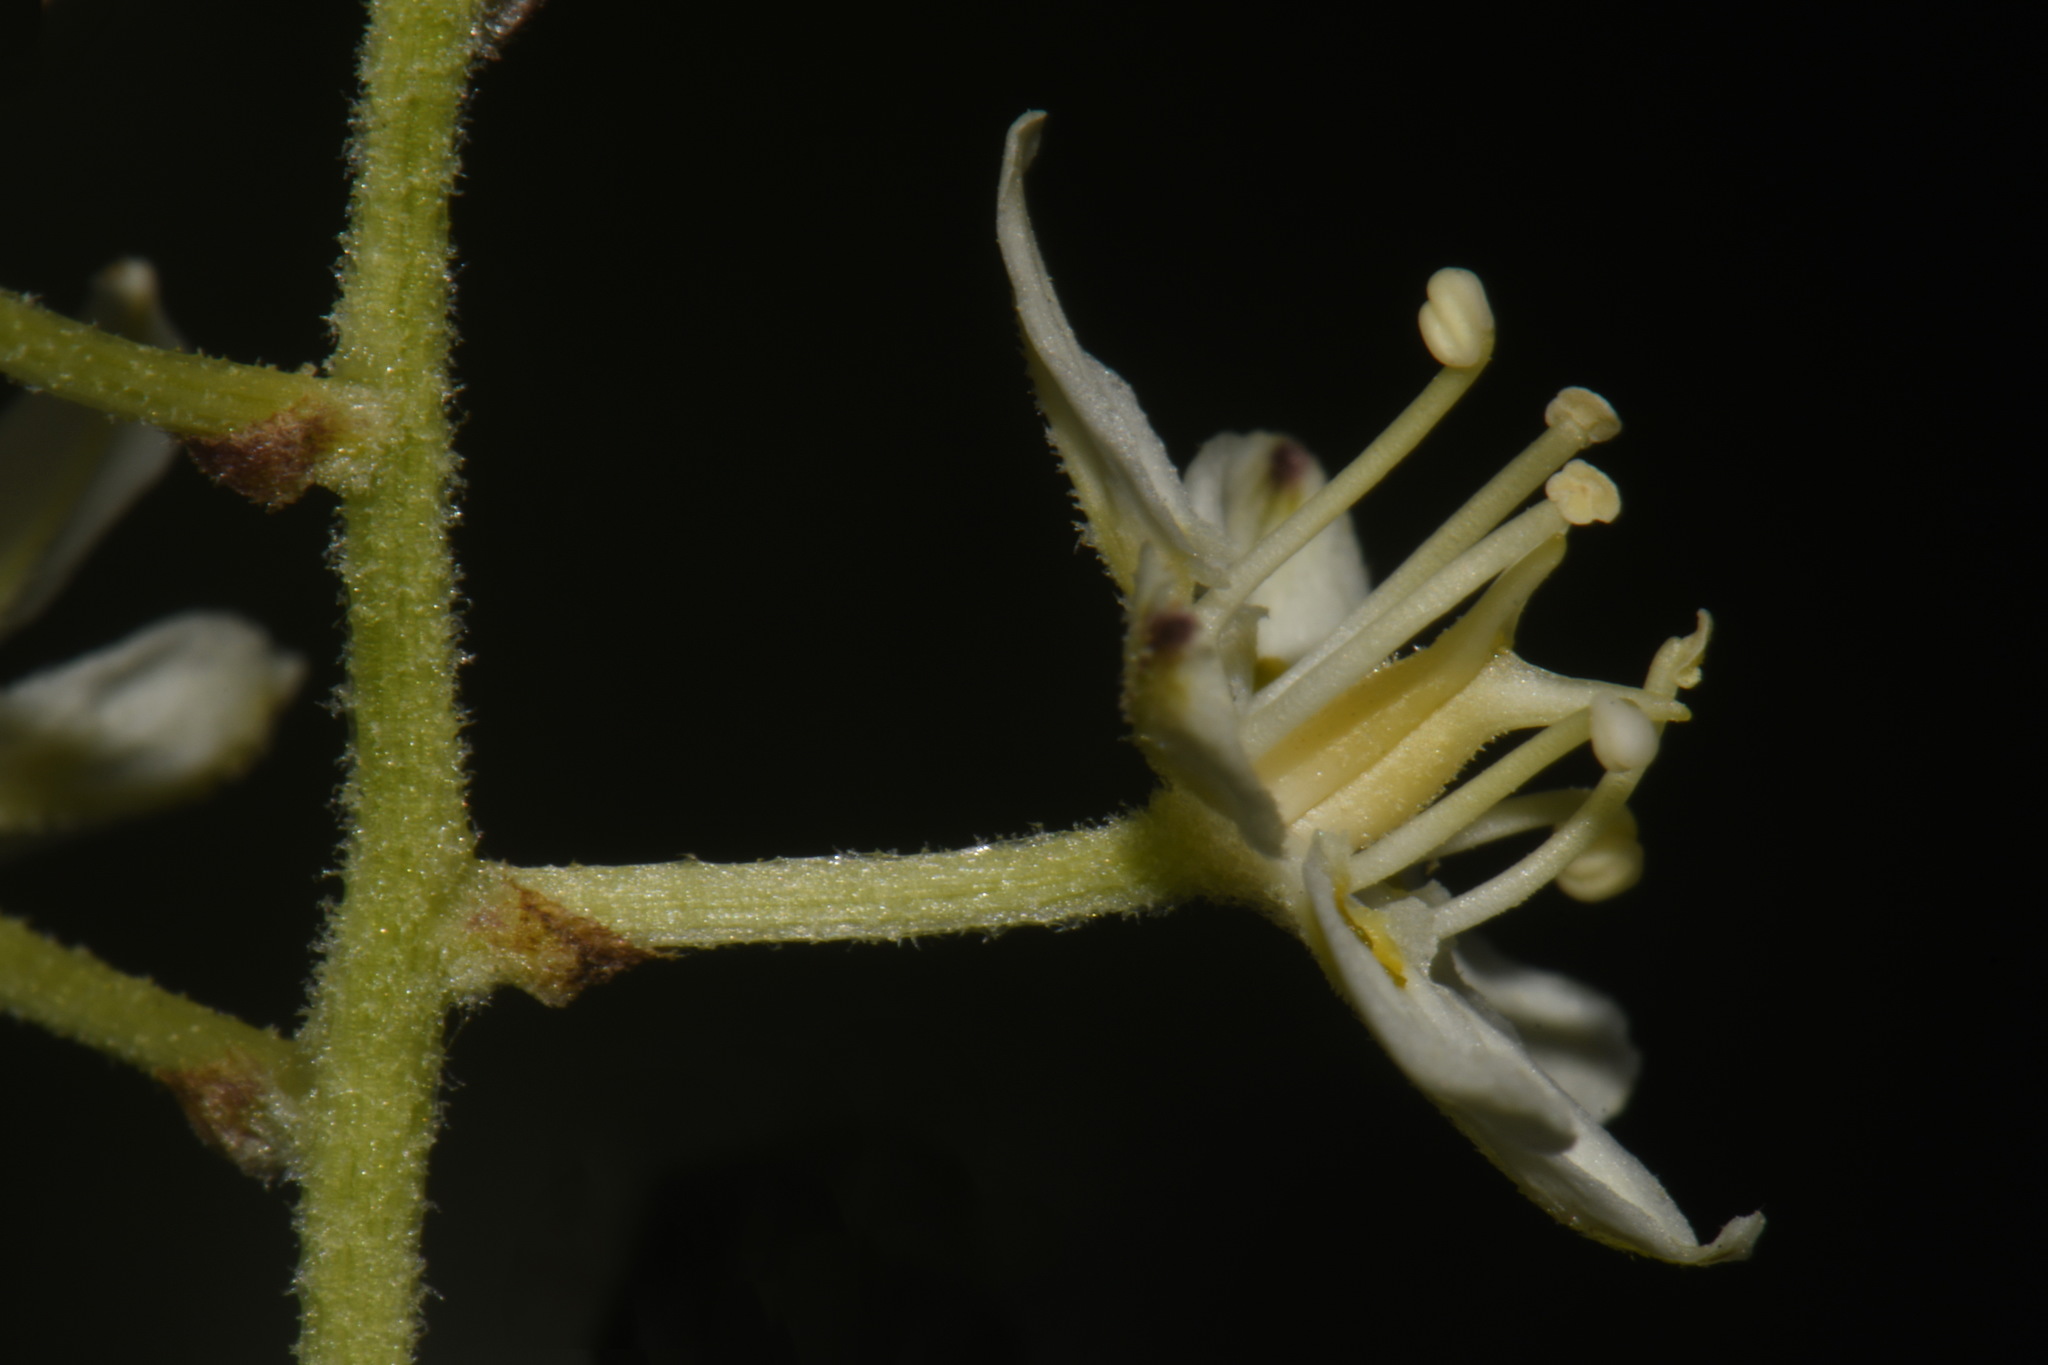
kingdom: Plantae
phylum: Tracheophyta
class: Liliopsida
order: Liliales
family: Melanthiaceae
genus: Melanthium
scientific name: Melanthium virginicum
